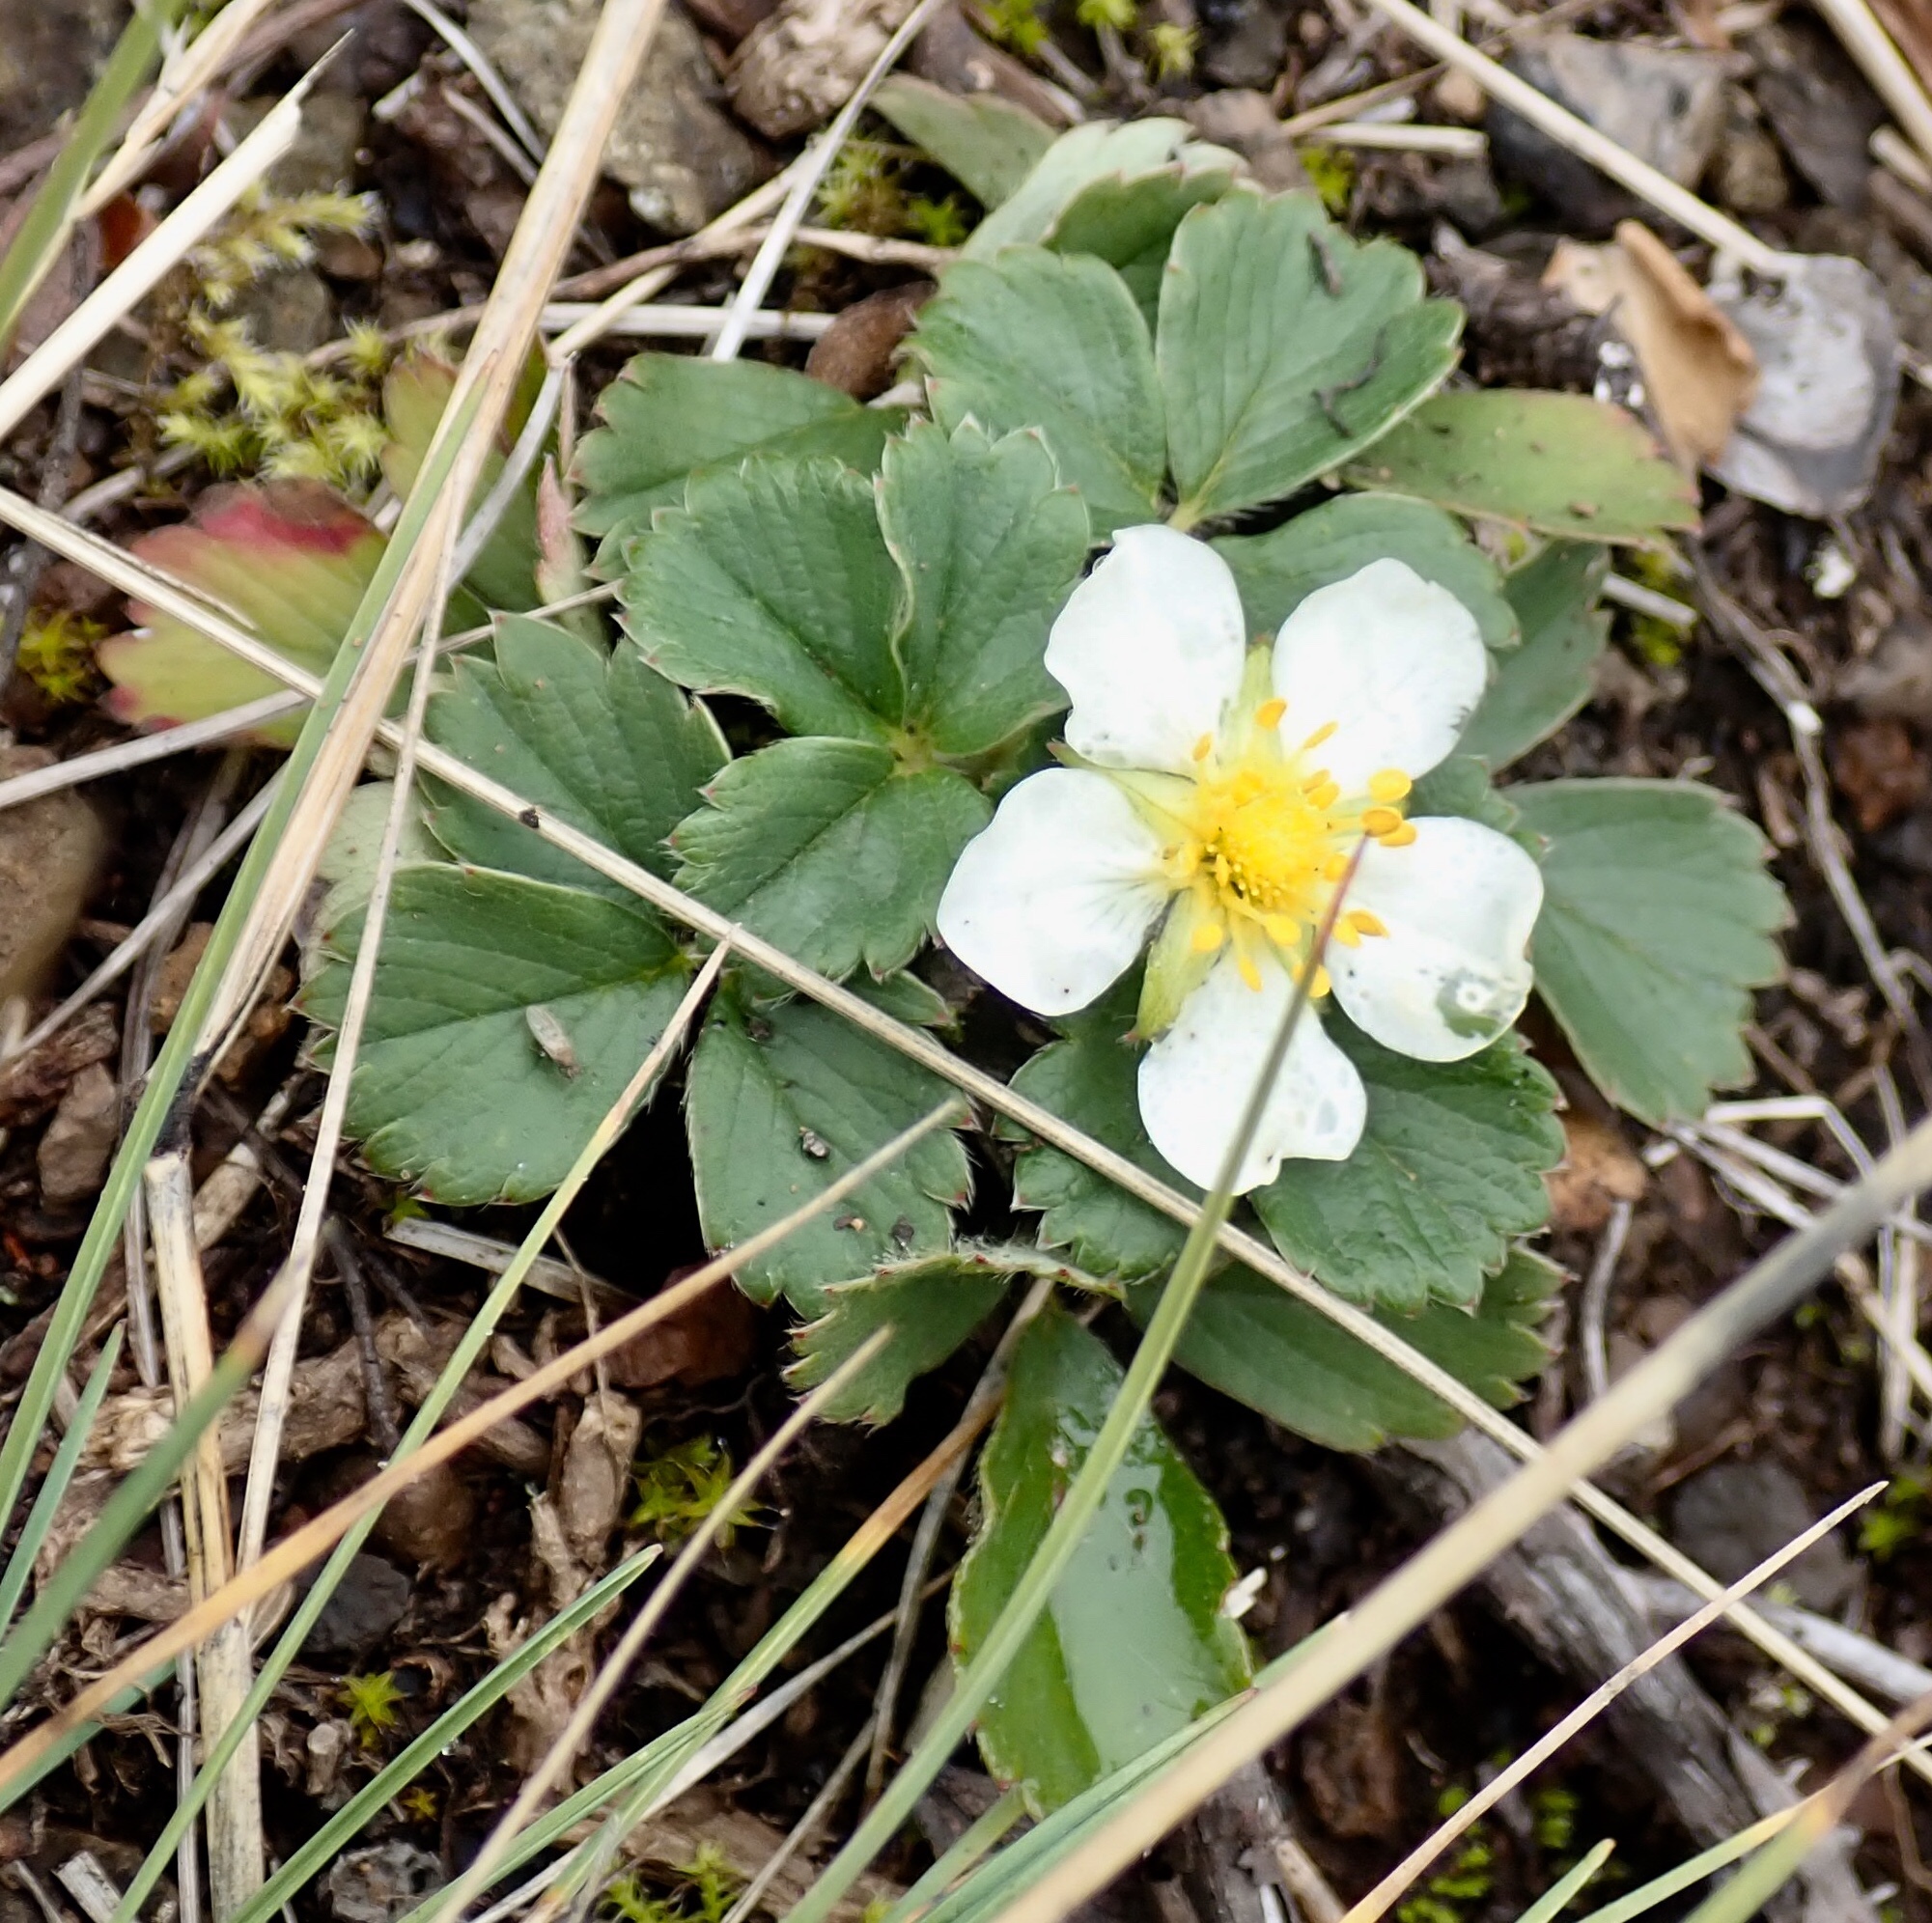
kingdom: Plantae
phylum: Tracheophyta
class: Magnoliopsida
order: Rosales
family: Rosaceae
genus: Fragaria
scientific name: Fragaria virginiana
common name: Thickleaved wild strawberry
